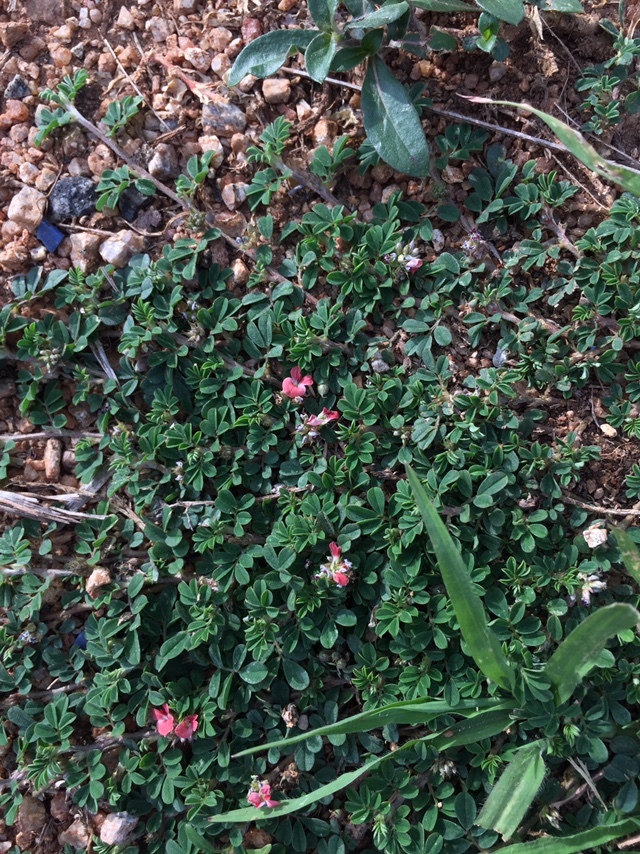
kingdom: Plantae
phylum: Tracheophyta
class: Magnoliopsida
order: Fabales
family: Fabaceae
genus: Indigofera
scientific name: Indigofera linnaei
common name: Nine-leaf indigo
